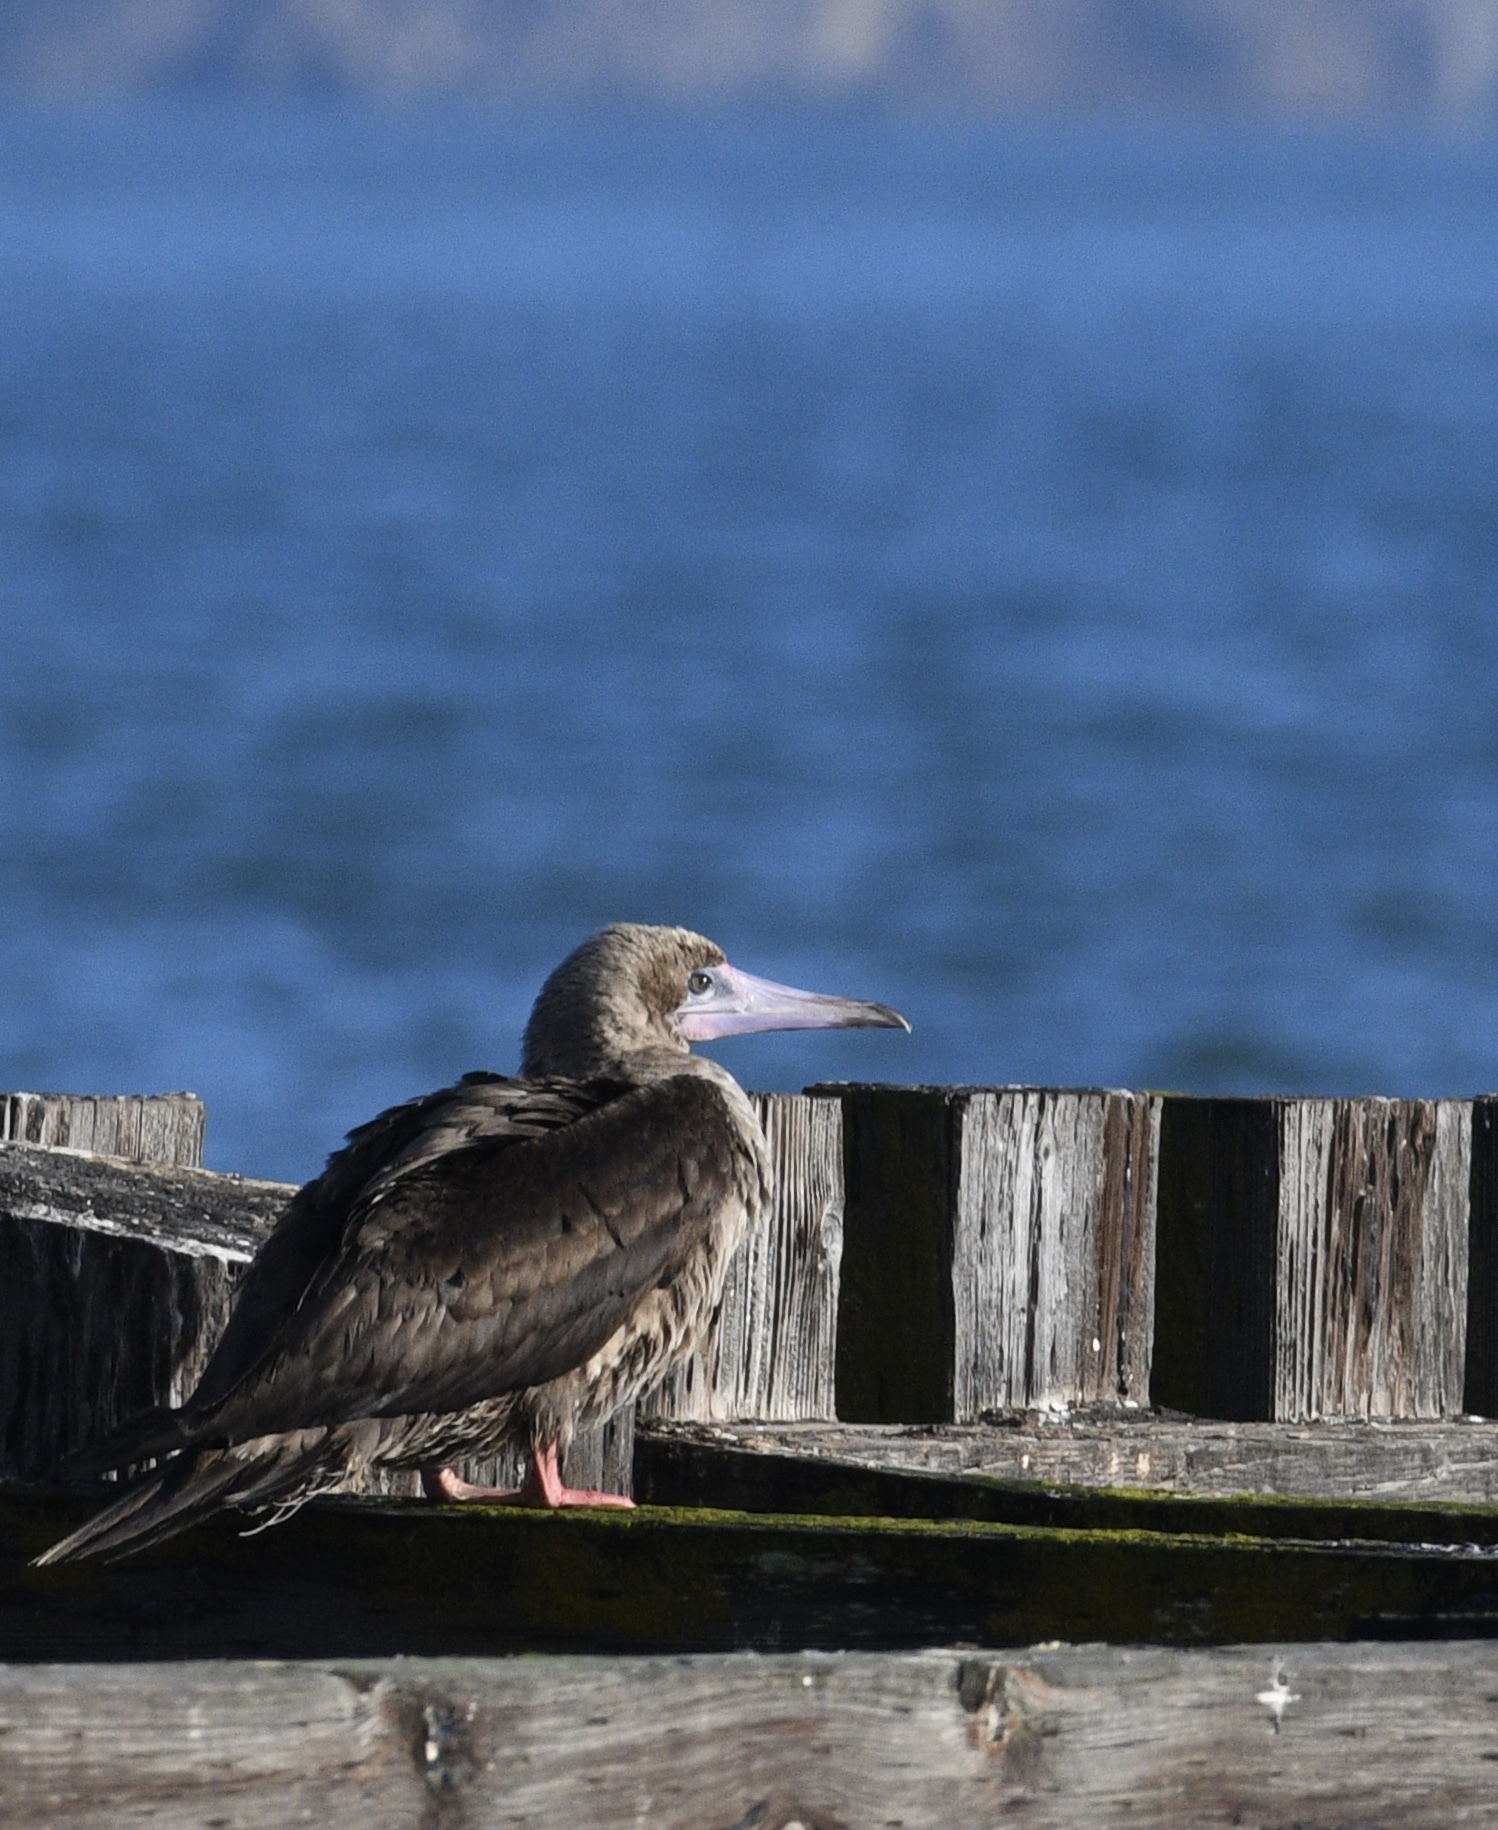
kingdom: Animalia
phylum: Chordata
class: Aves
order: Suliformes
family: Sulidae
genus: Sula
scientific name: Sula sula
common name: Red-footed booby
